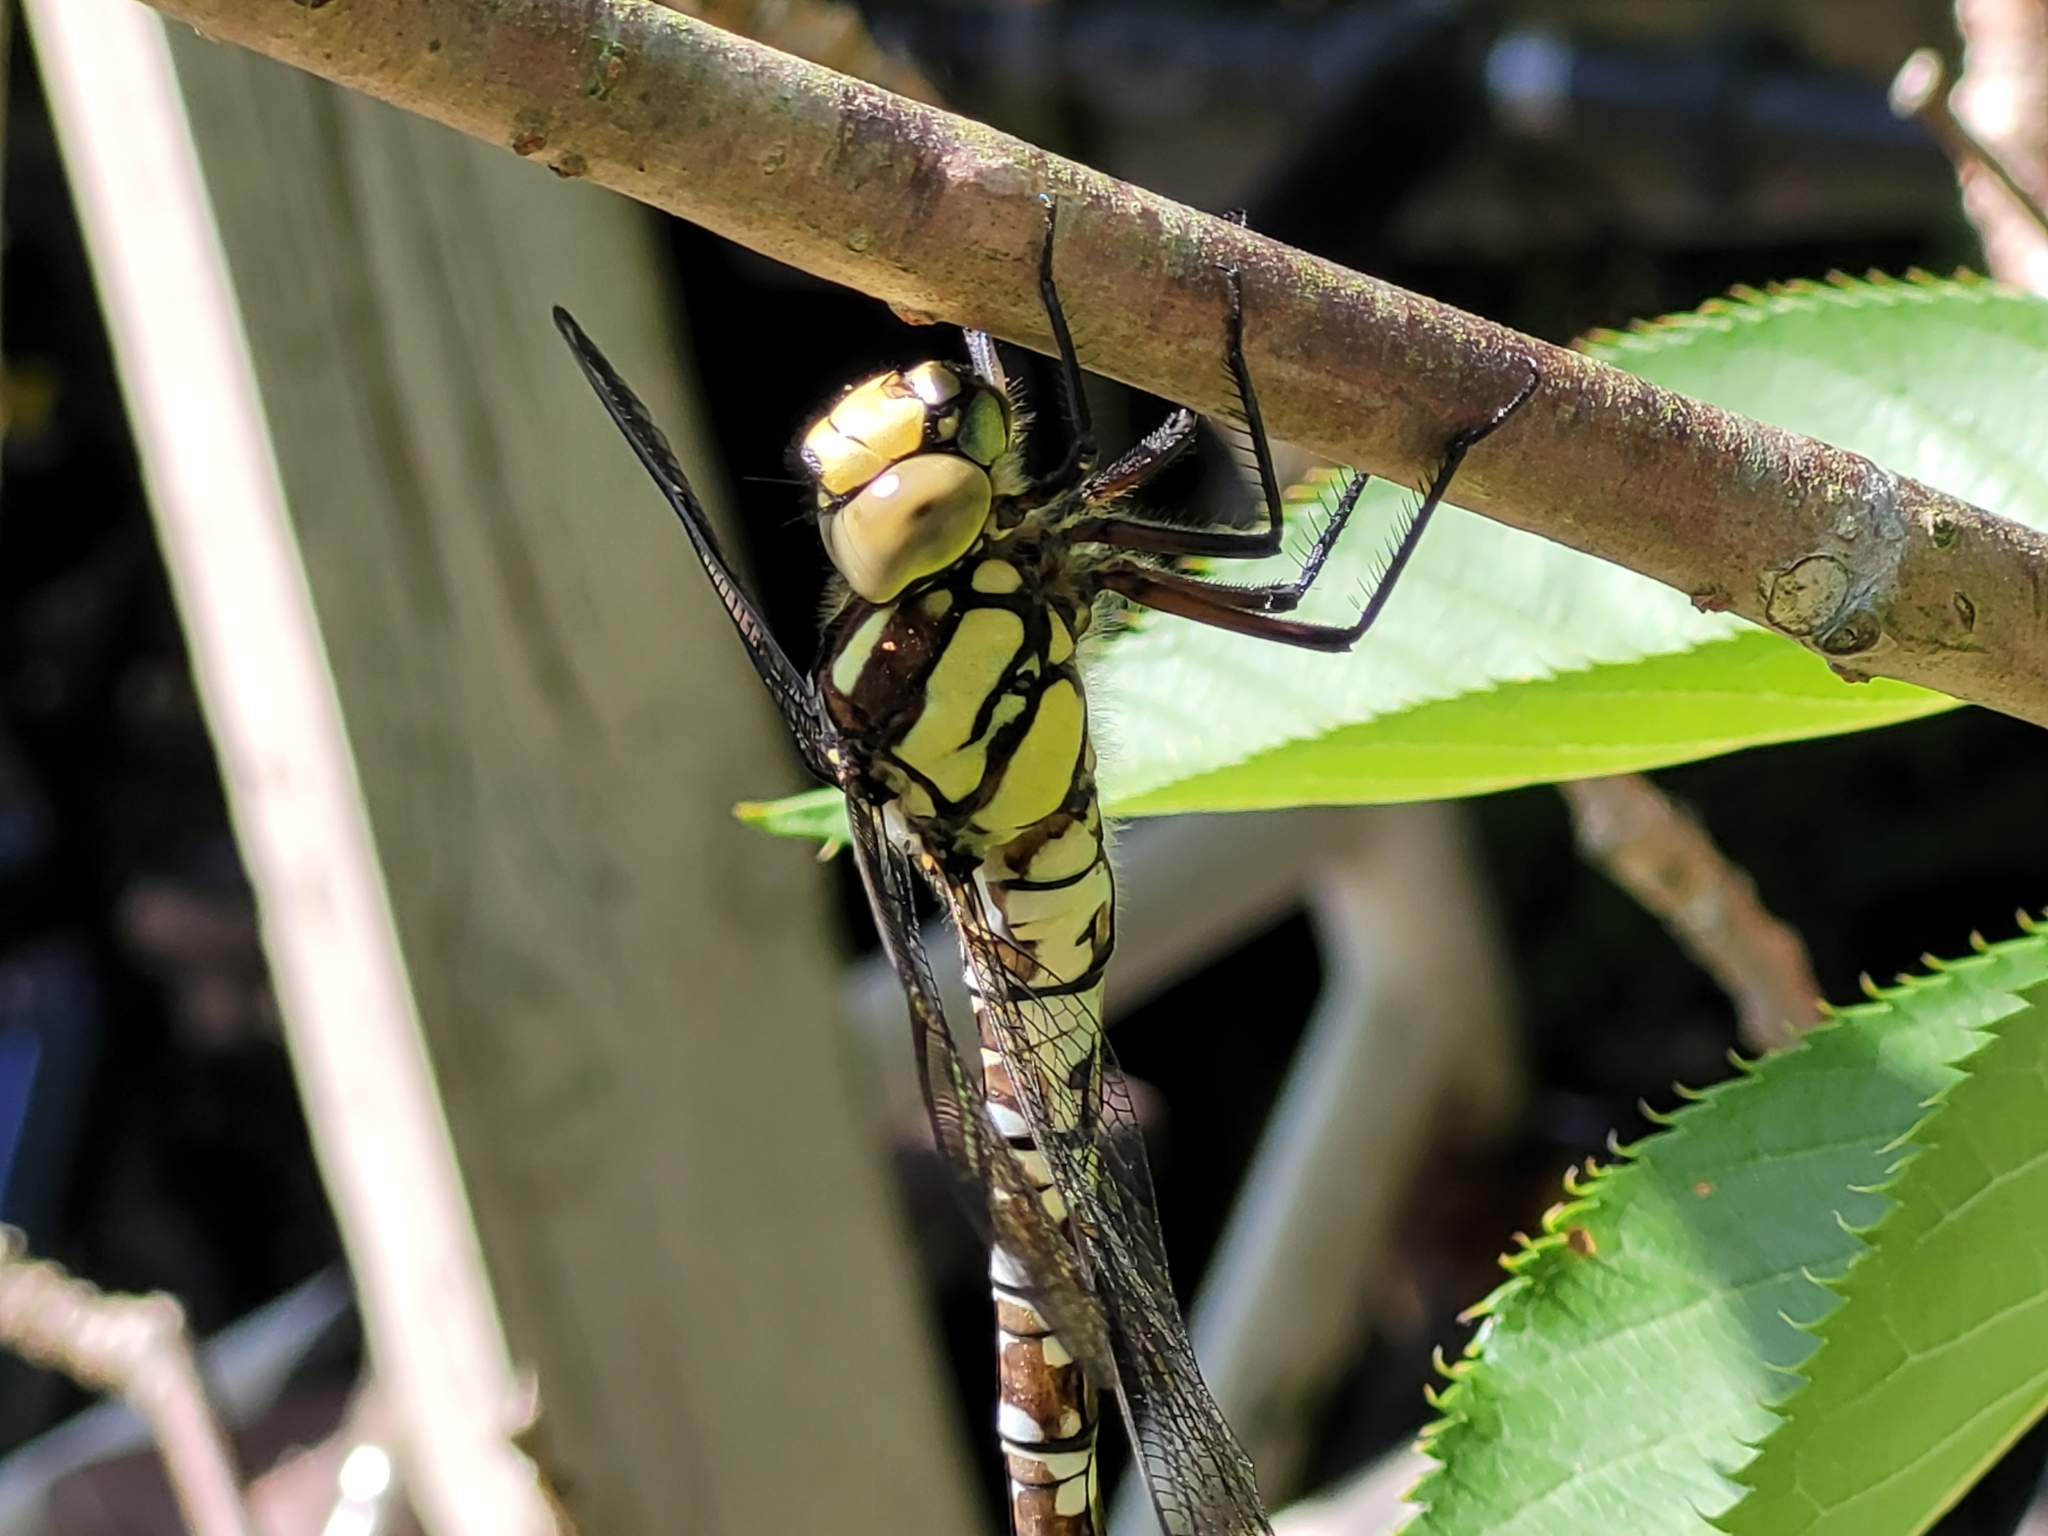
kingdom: Animalia
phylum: Arthropoda
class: Insecta
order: Odonata
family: Aeshnidae
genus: Aeshna
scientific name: Aeshna cyanea
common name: Southern hawker
